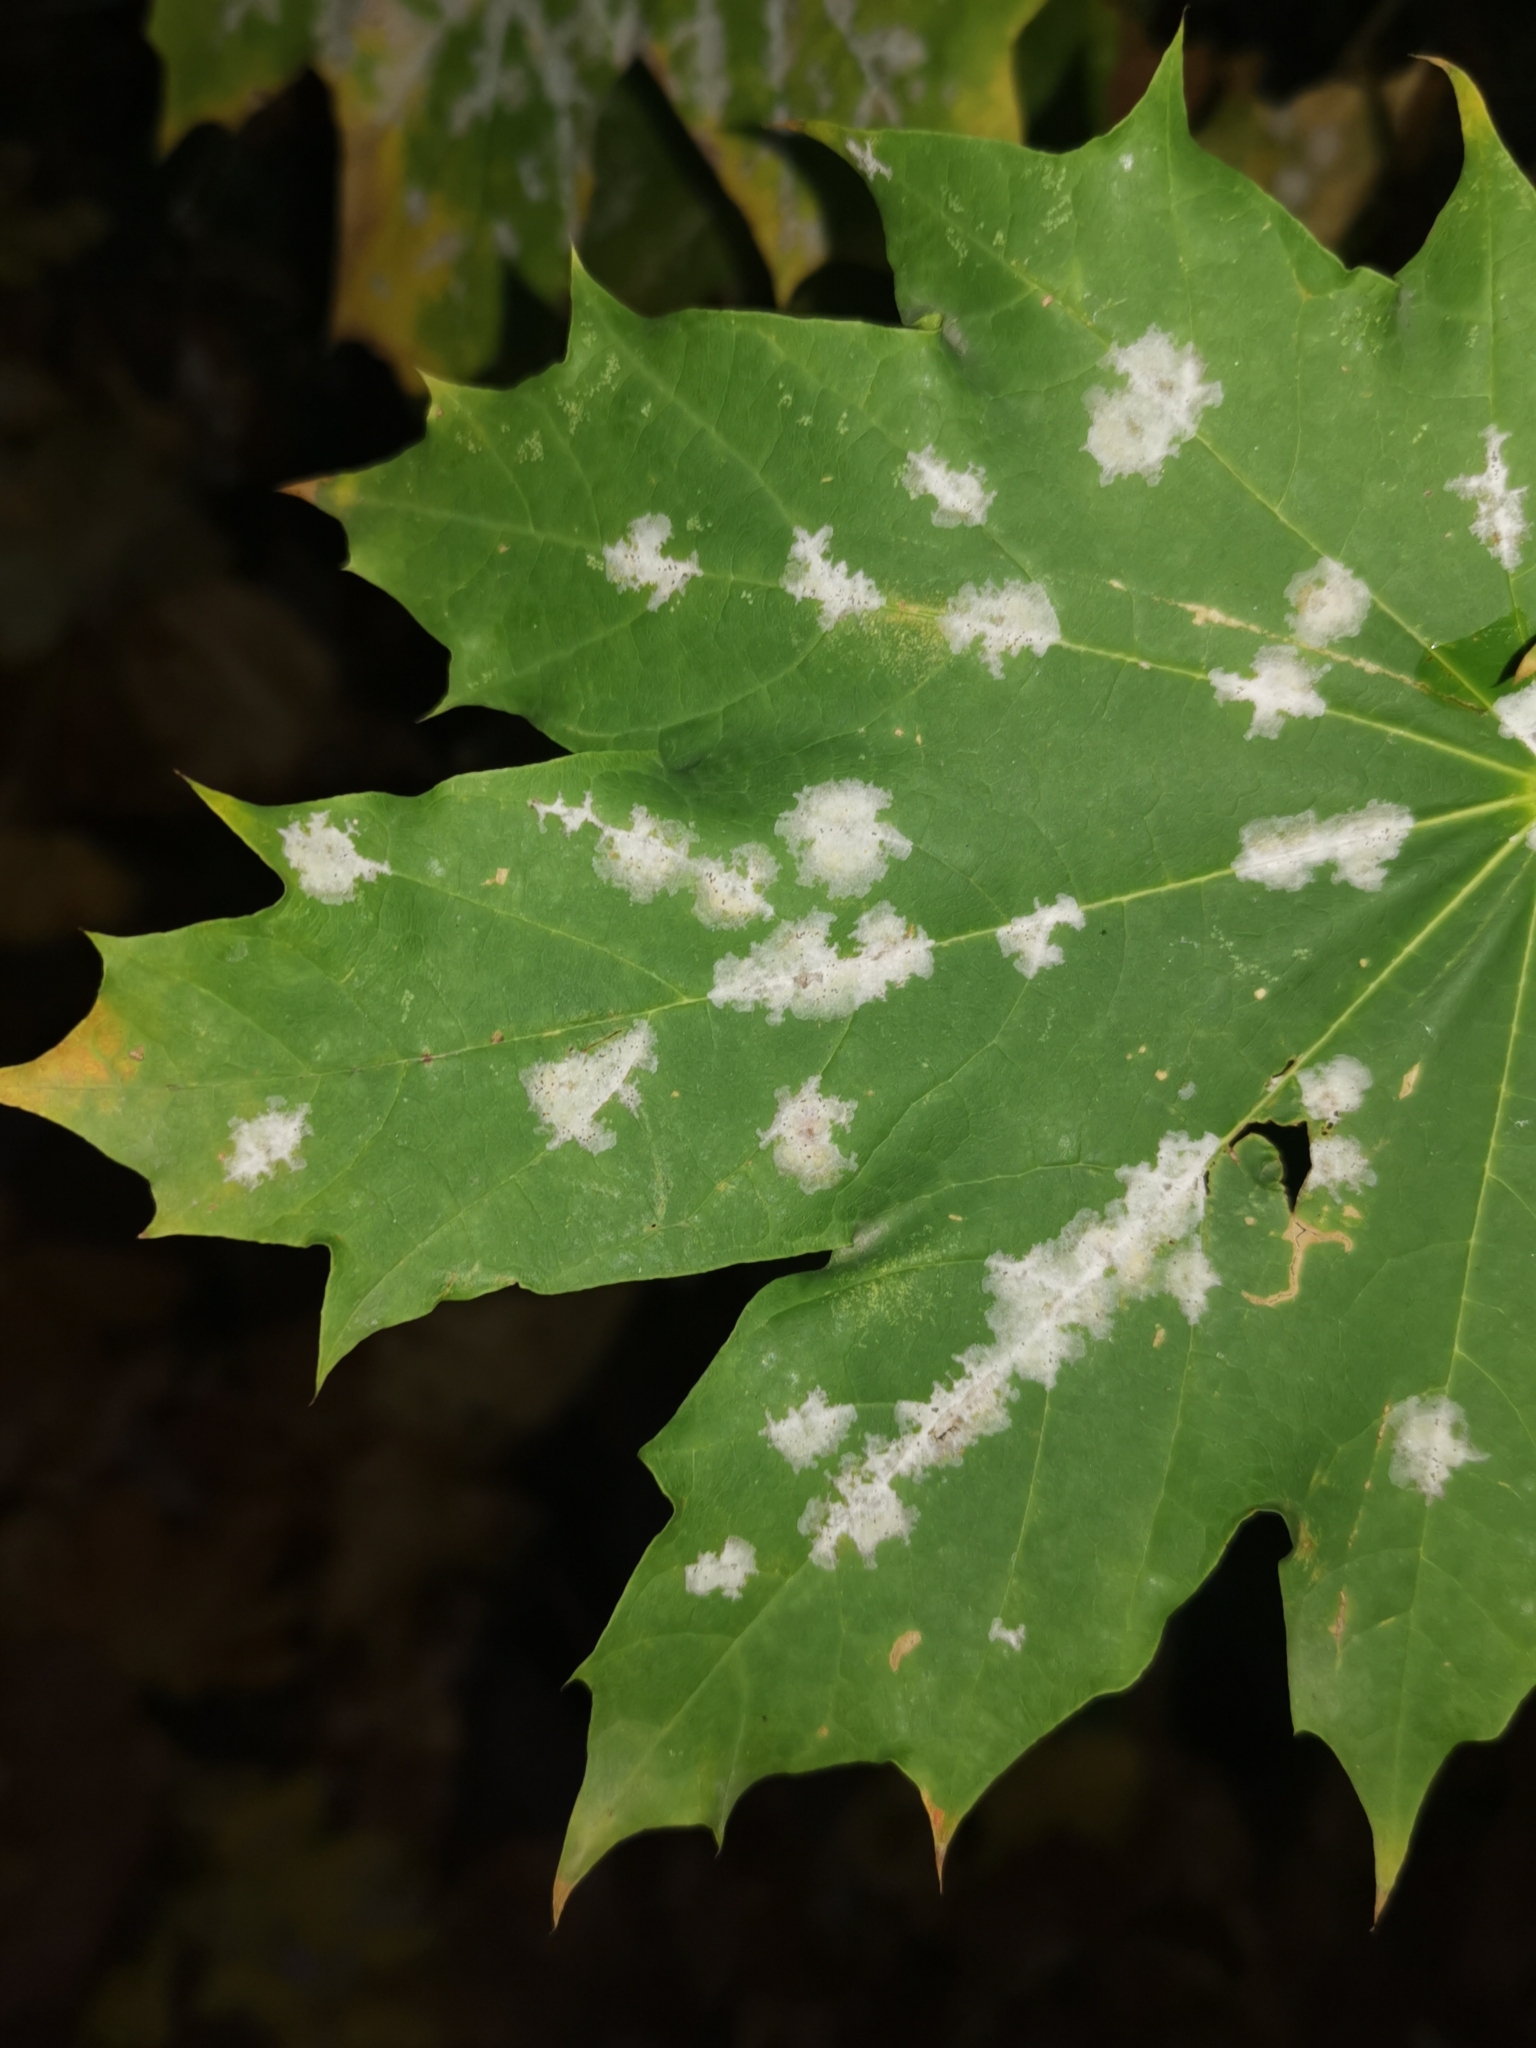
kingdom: Fungi
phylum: Ascomycota
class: Leotiomycetes
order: Helotiales
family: Erysiphaceae
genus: Sawadaea
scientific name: Sawadaea tulasnei
